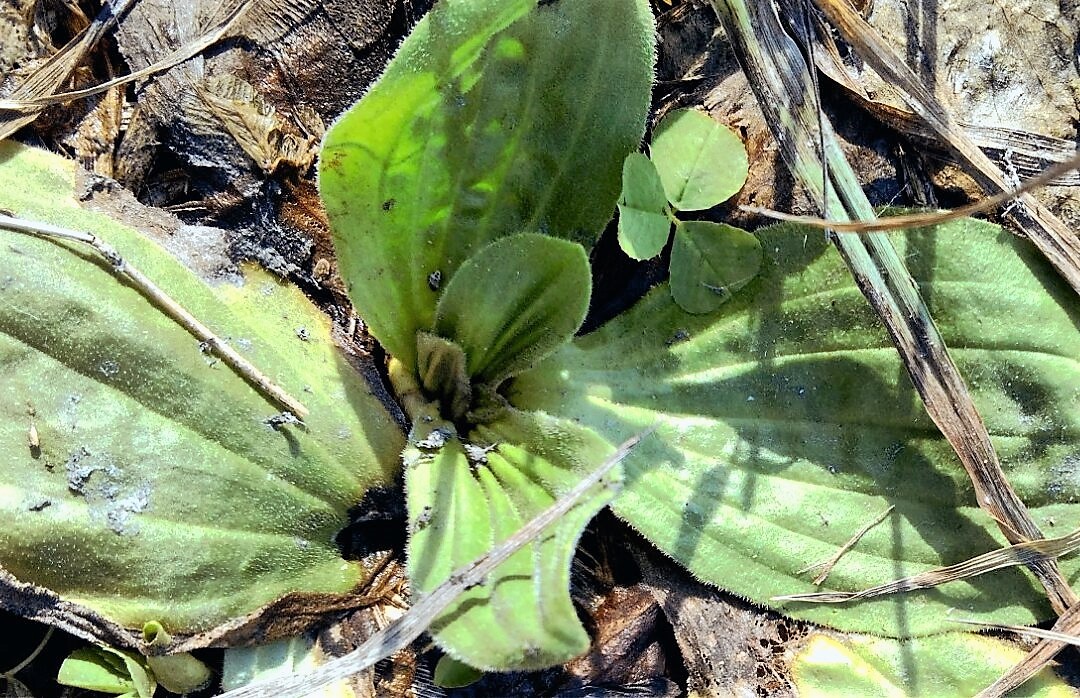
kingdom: Plantae
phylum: Tracheophyta
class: Magnoliopsida
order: Lamiales
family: Plantaginaceae
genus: Plantago
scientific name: Plantago media
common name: Hoary plantain
